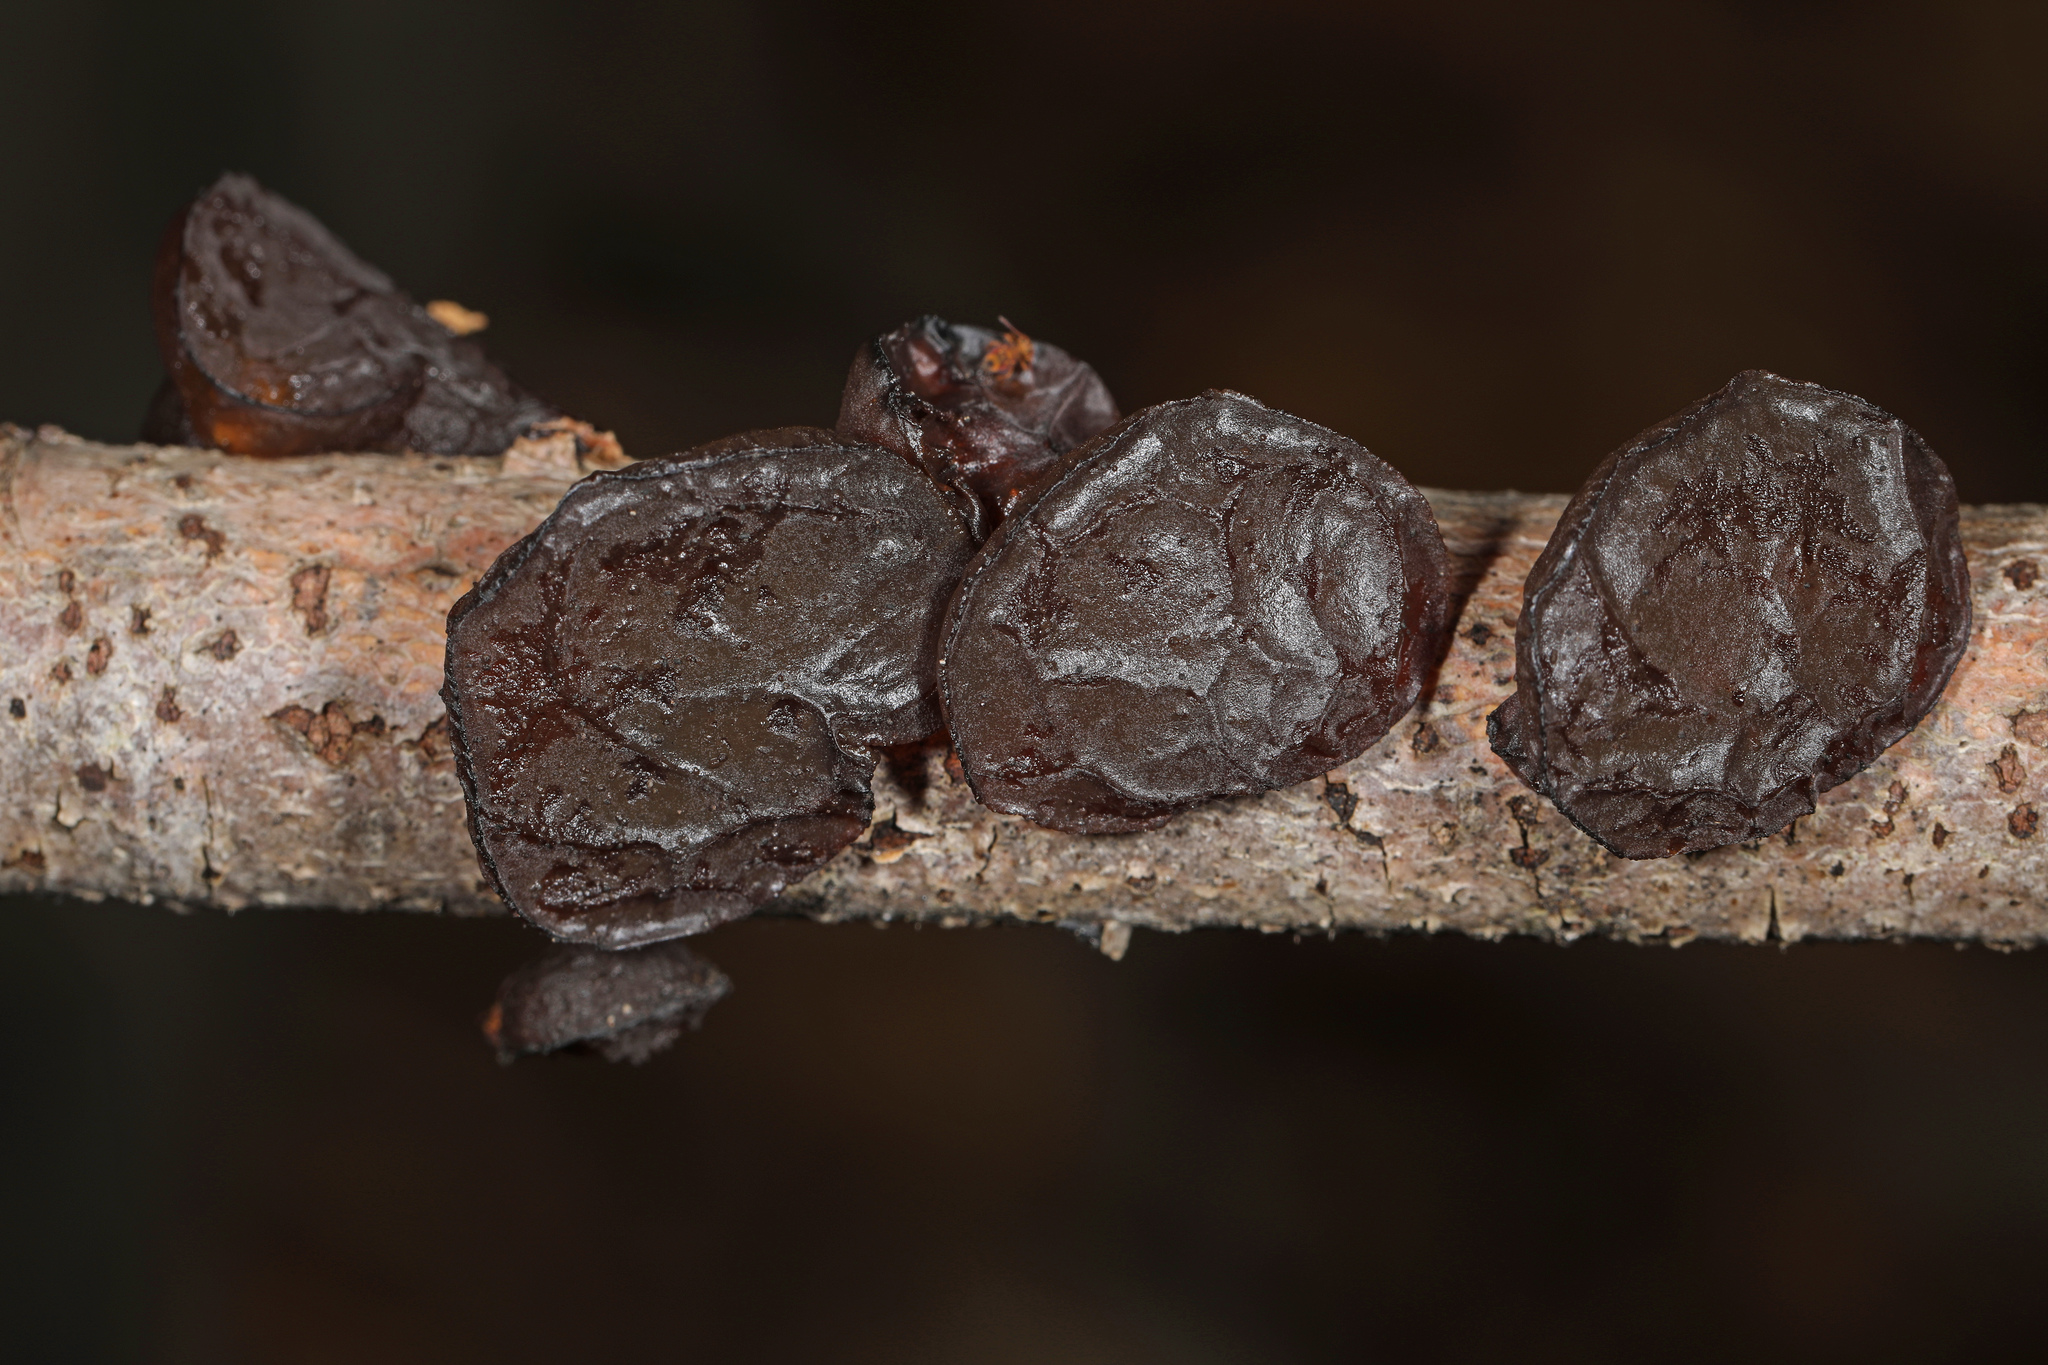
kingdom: Fungi
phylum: Basidiomycota
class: Agaricomycetes
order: Auriculariales
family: Auriculariaceae
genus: Exidia
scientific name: Exidia
